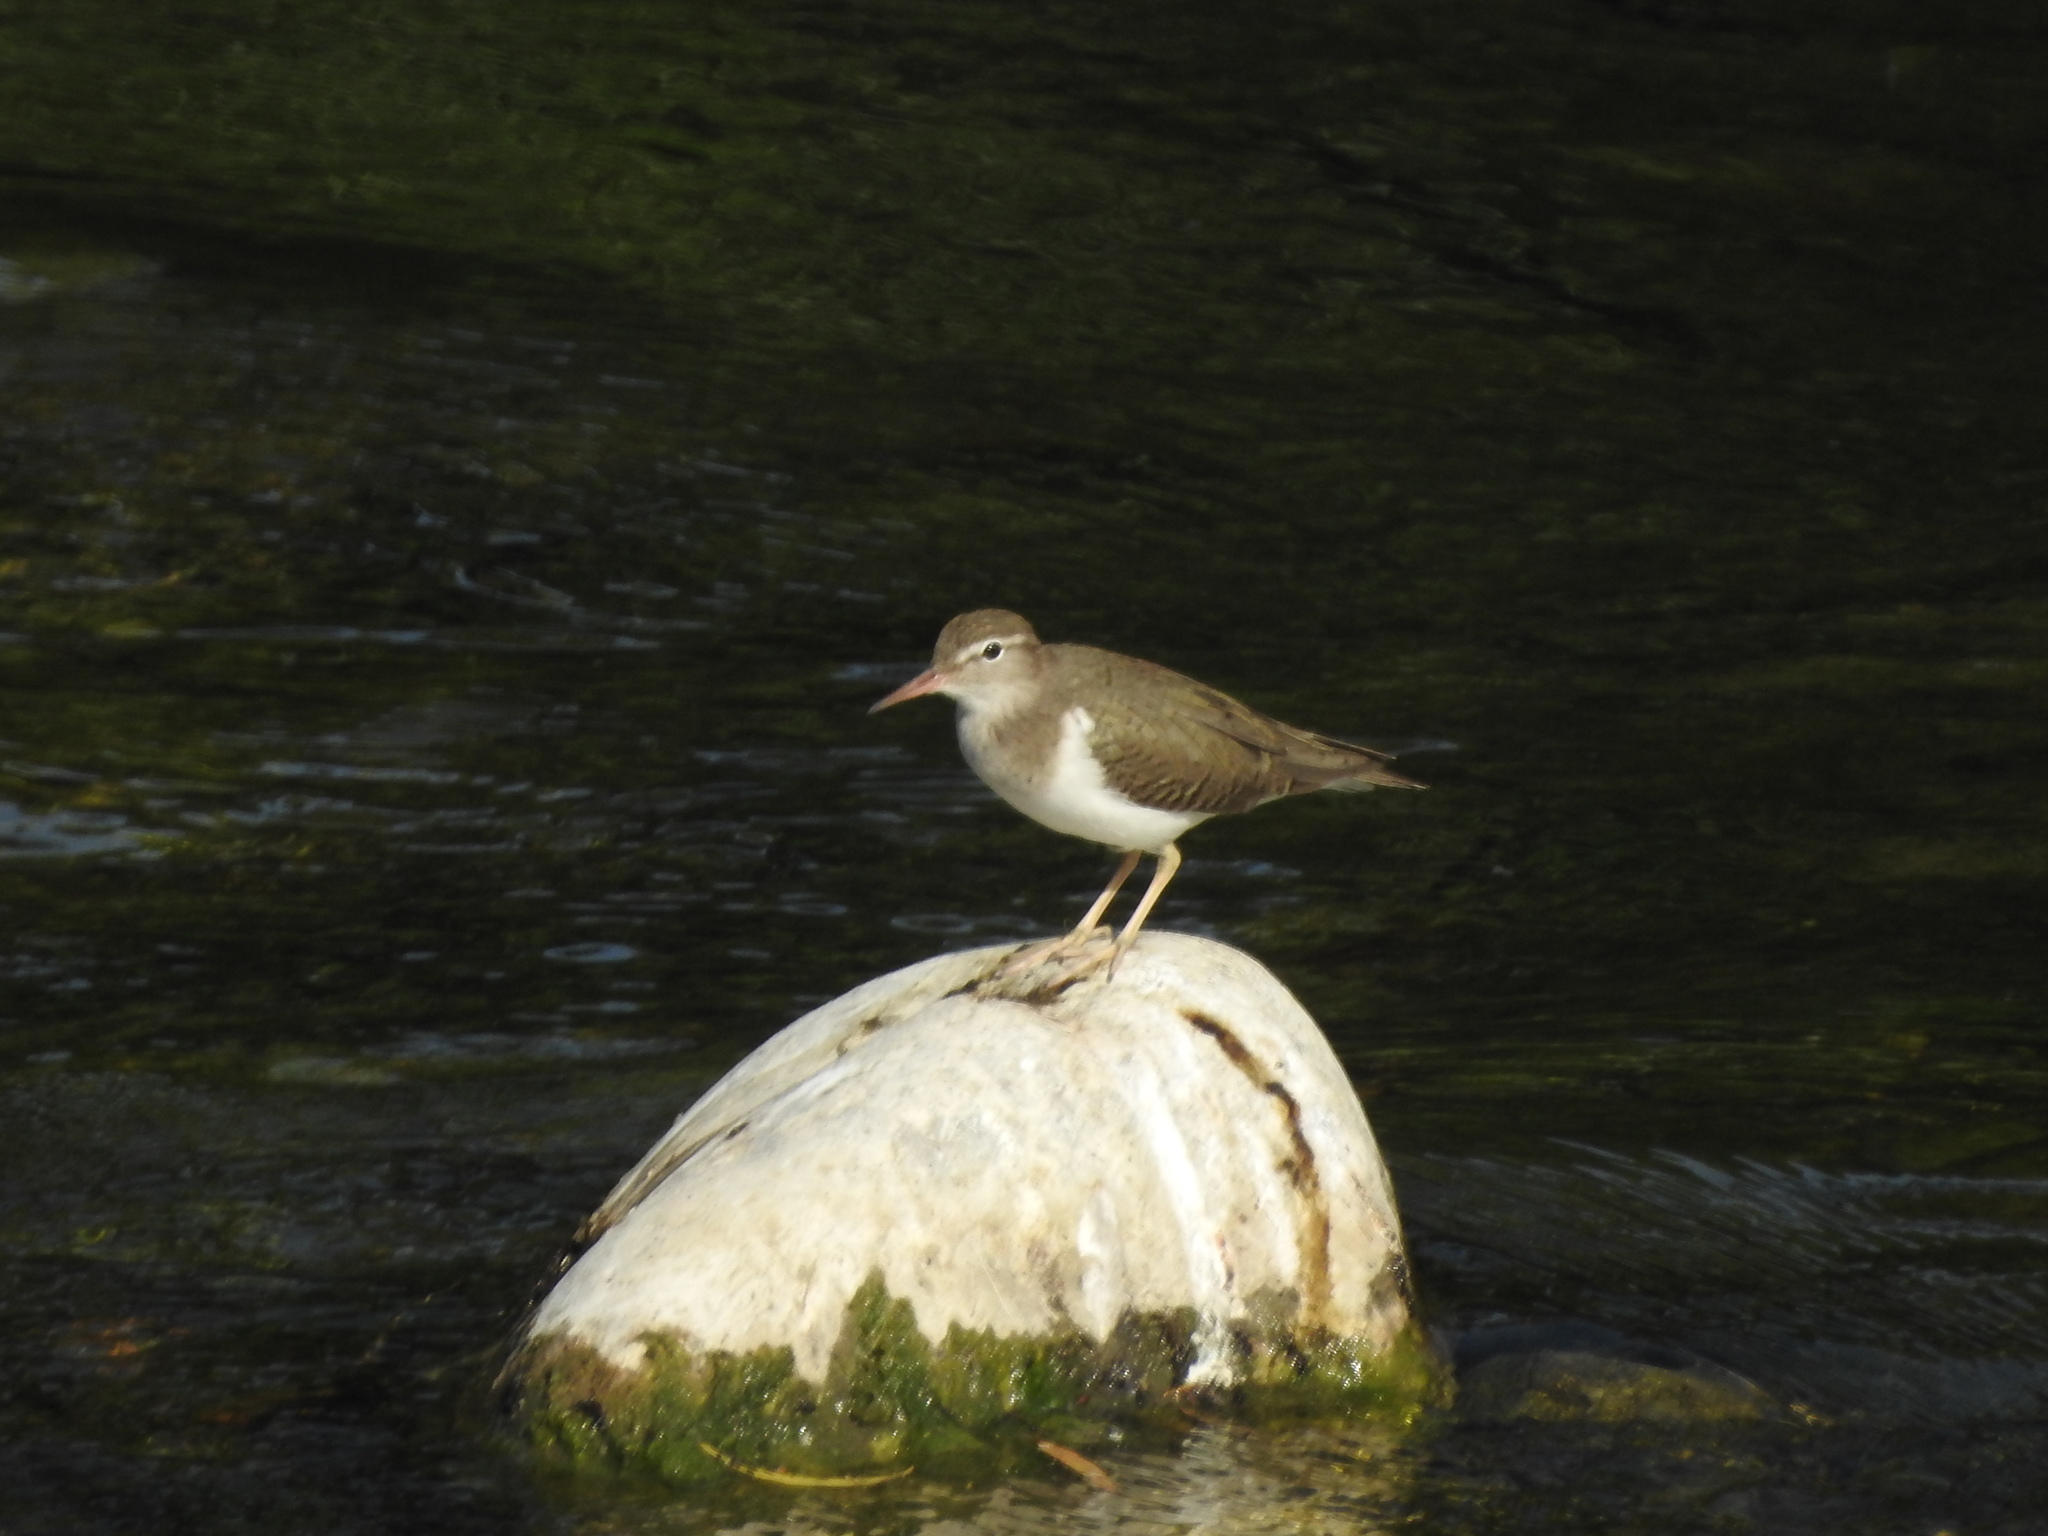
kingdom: Animalia
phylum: Chordata
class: Aves
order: Charadriiformes
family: Scolopacidae
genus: Actitis
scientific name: Actitis macularius
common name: Spotted sandpiper
